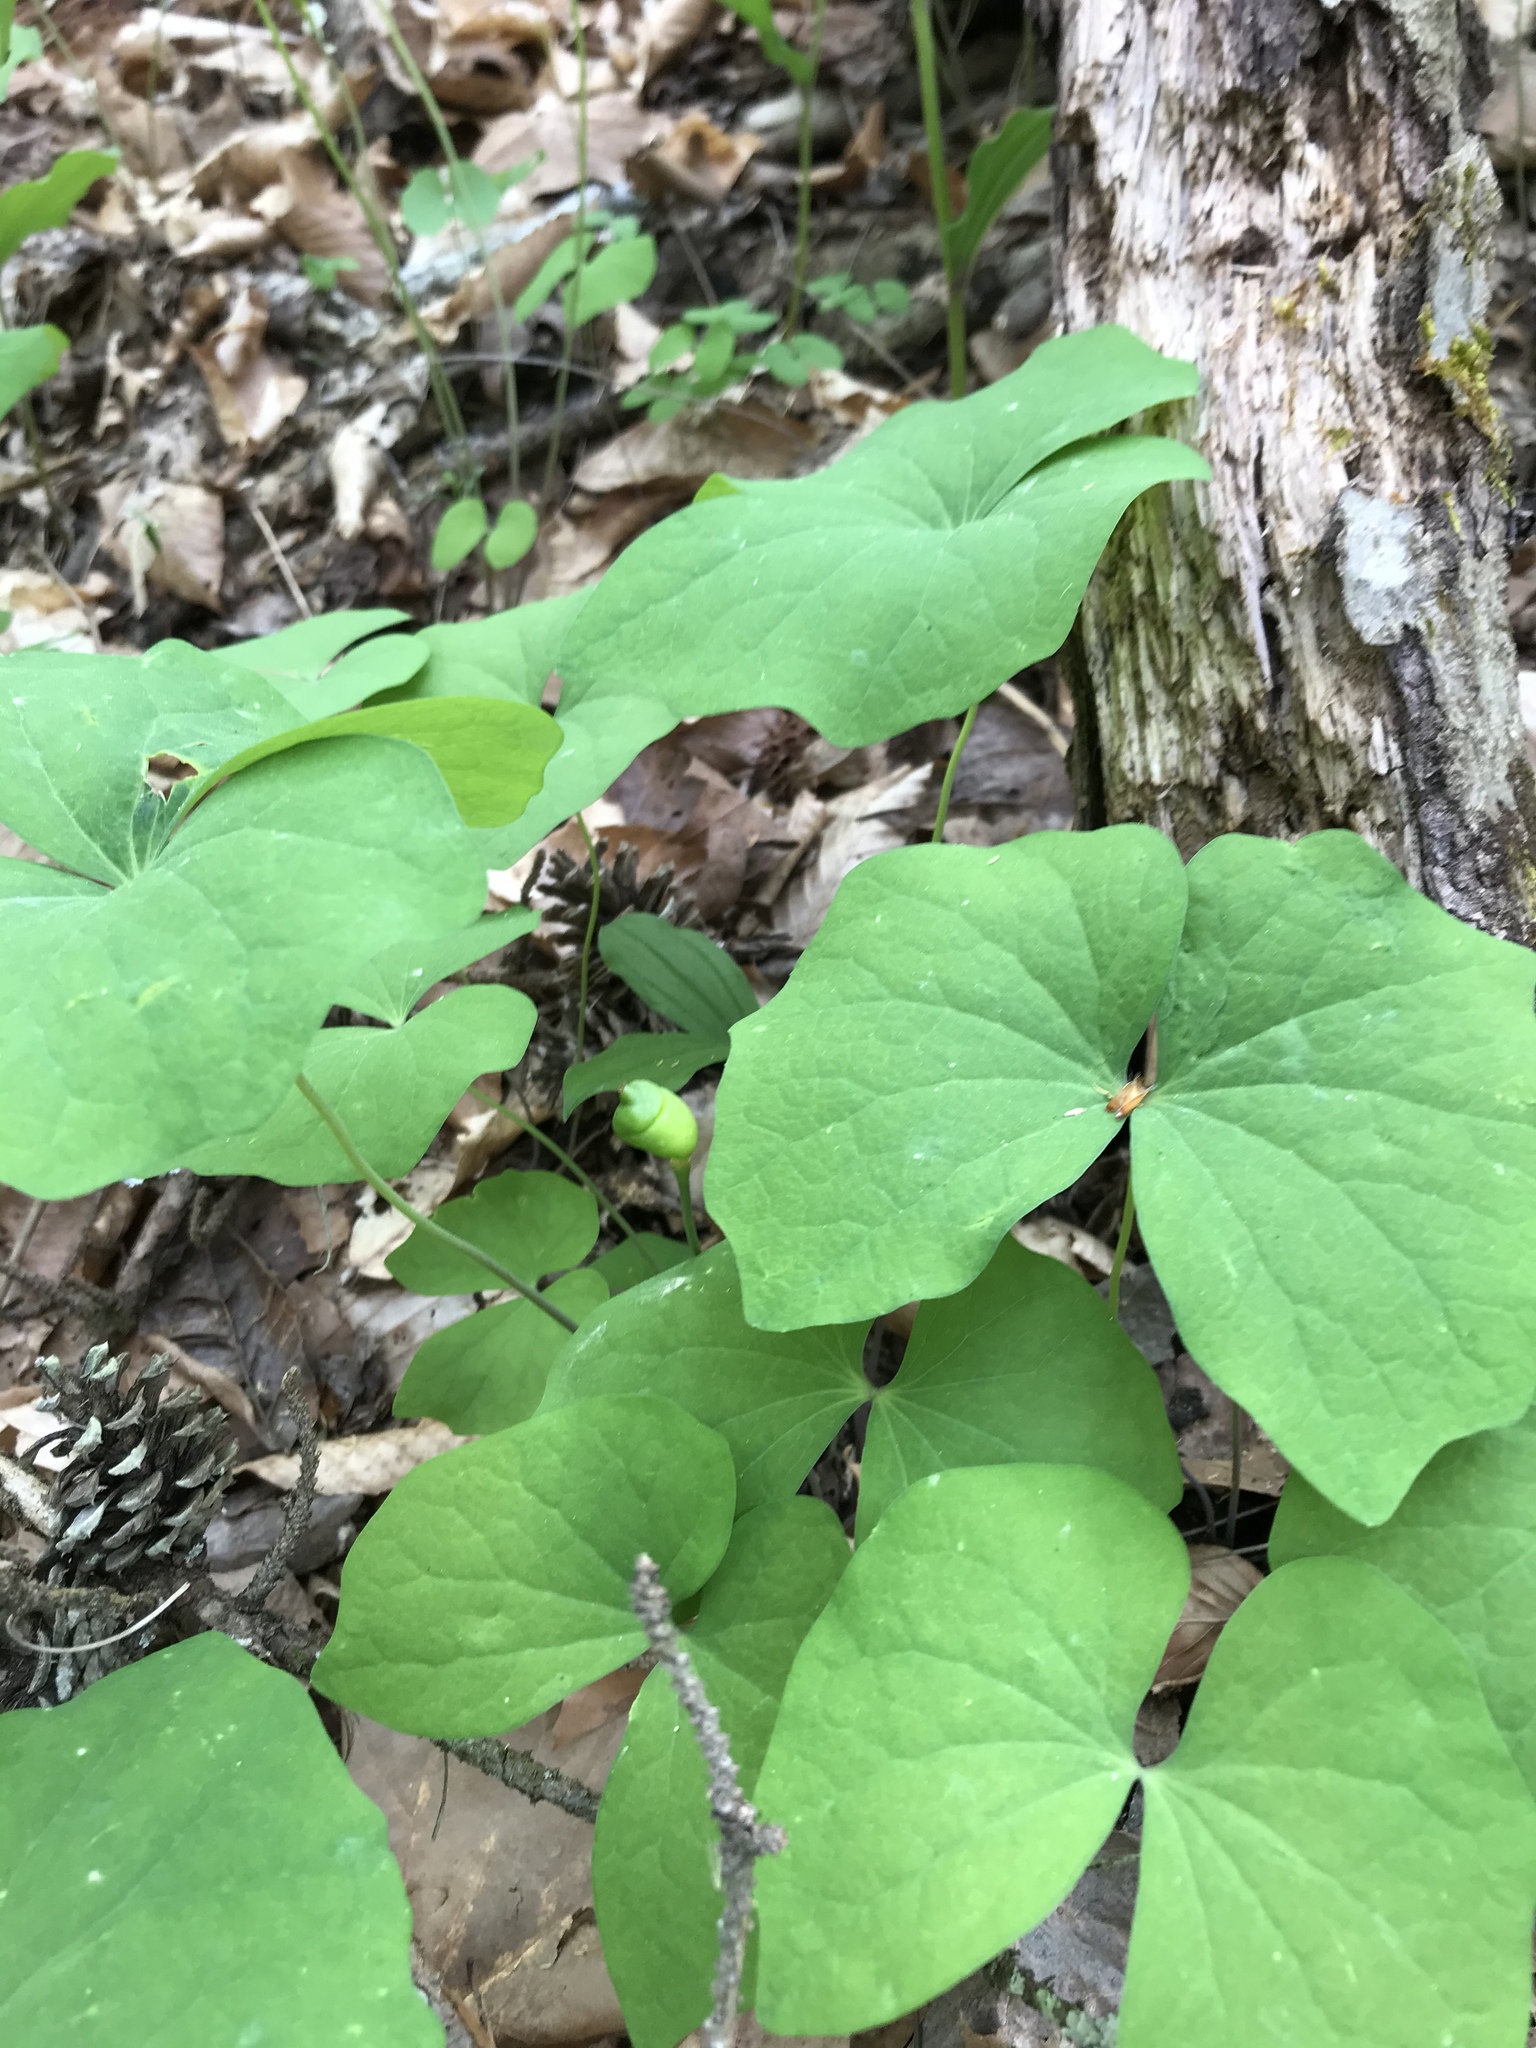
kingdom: Plantae
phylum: Tracheophyta
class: Magnoliopsida
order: Ranunculales
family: Berberidaceae
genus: Jeffersonia
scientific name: Jeffersonia diphylla
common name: Rheumatism-root
